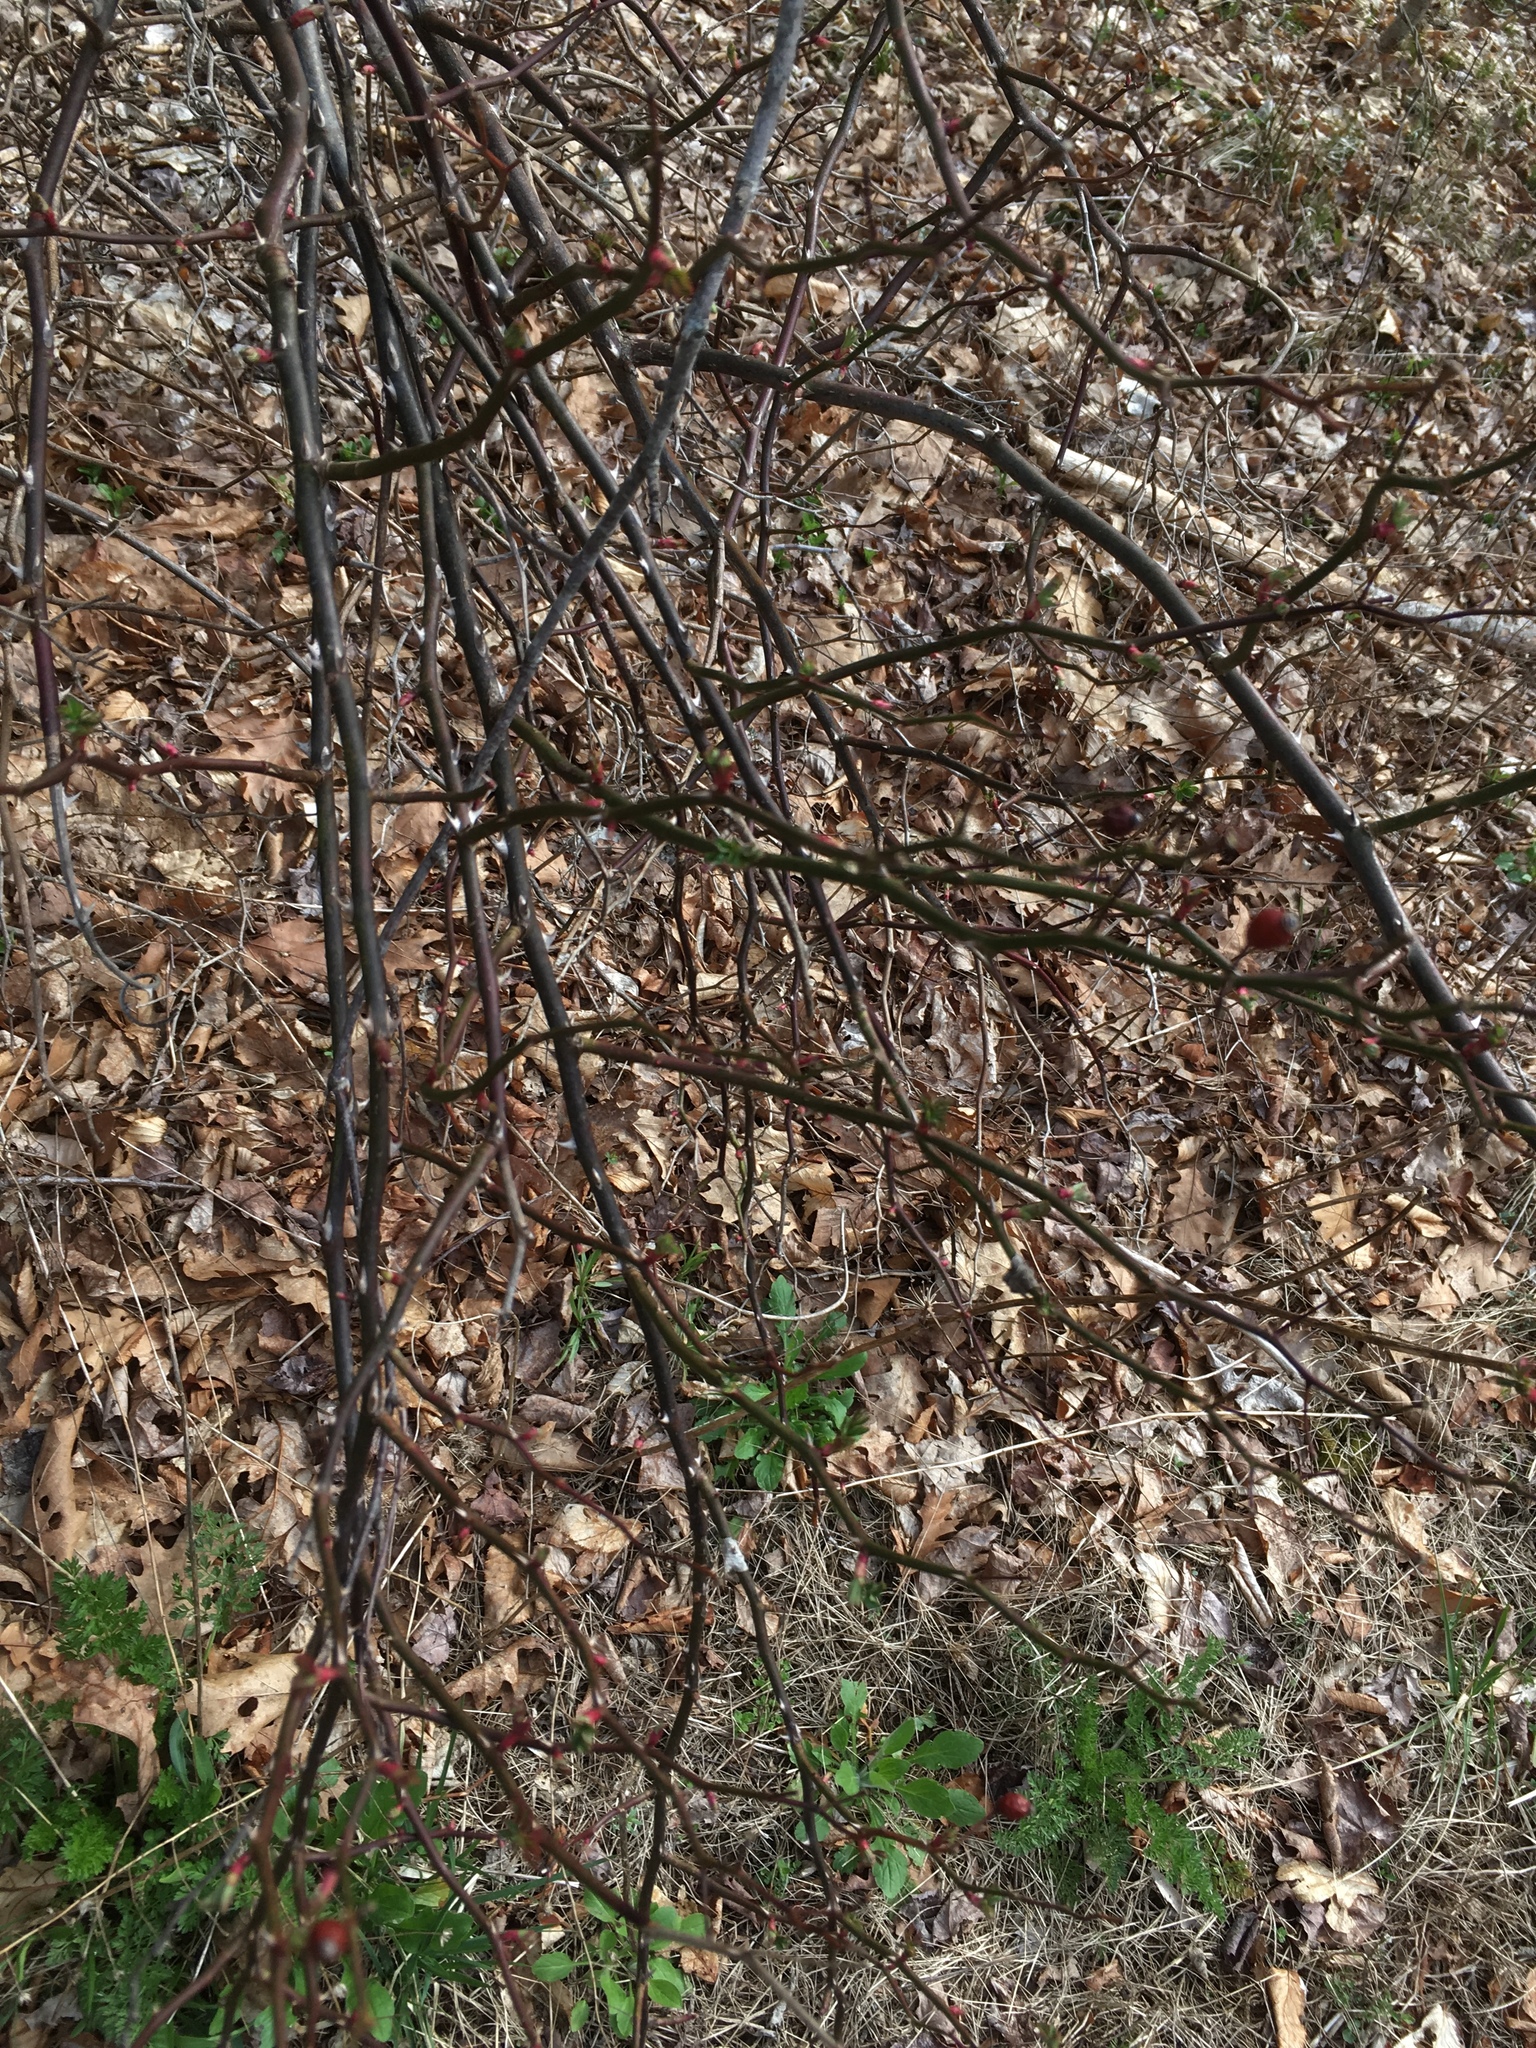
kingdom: Plantae
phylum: Tracheophyta
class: Magnoliopsida
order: Rosales
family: Rosaceae
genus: Rosa
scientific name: Rosa multiflora
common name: Multiflora rose
